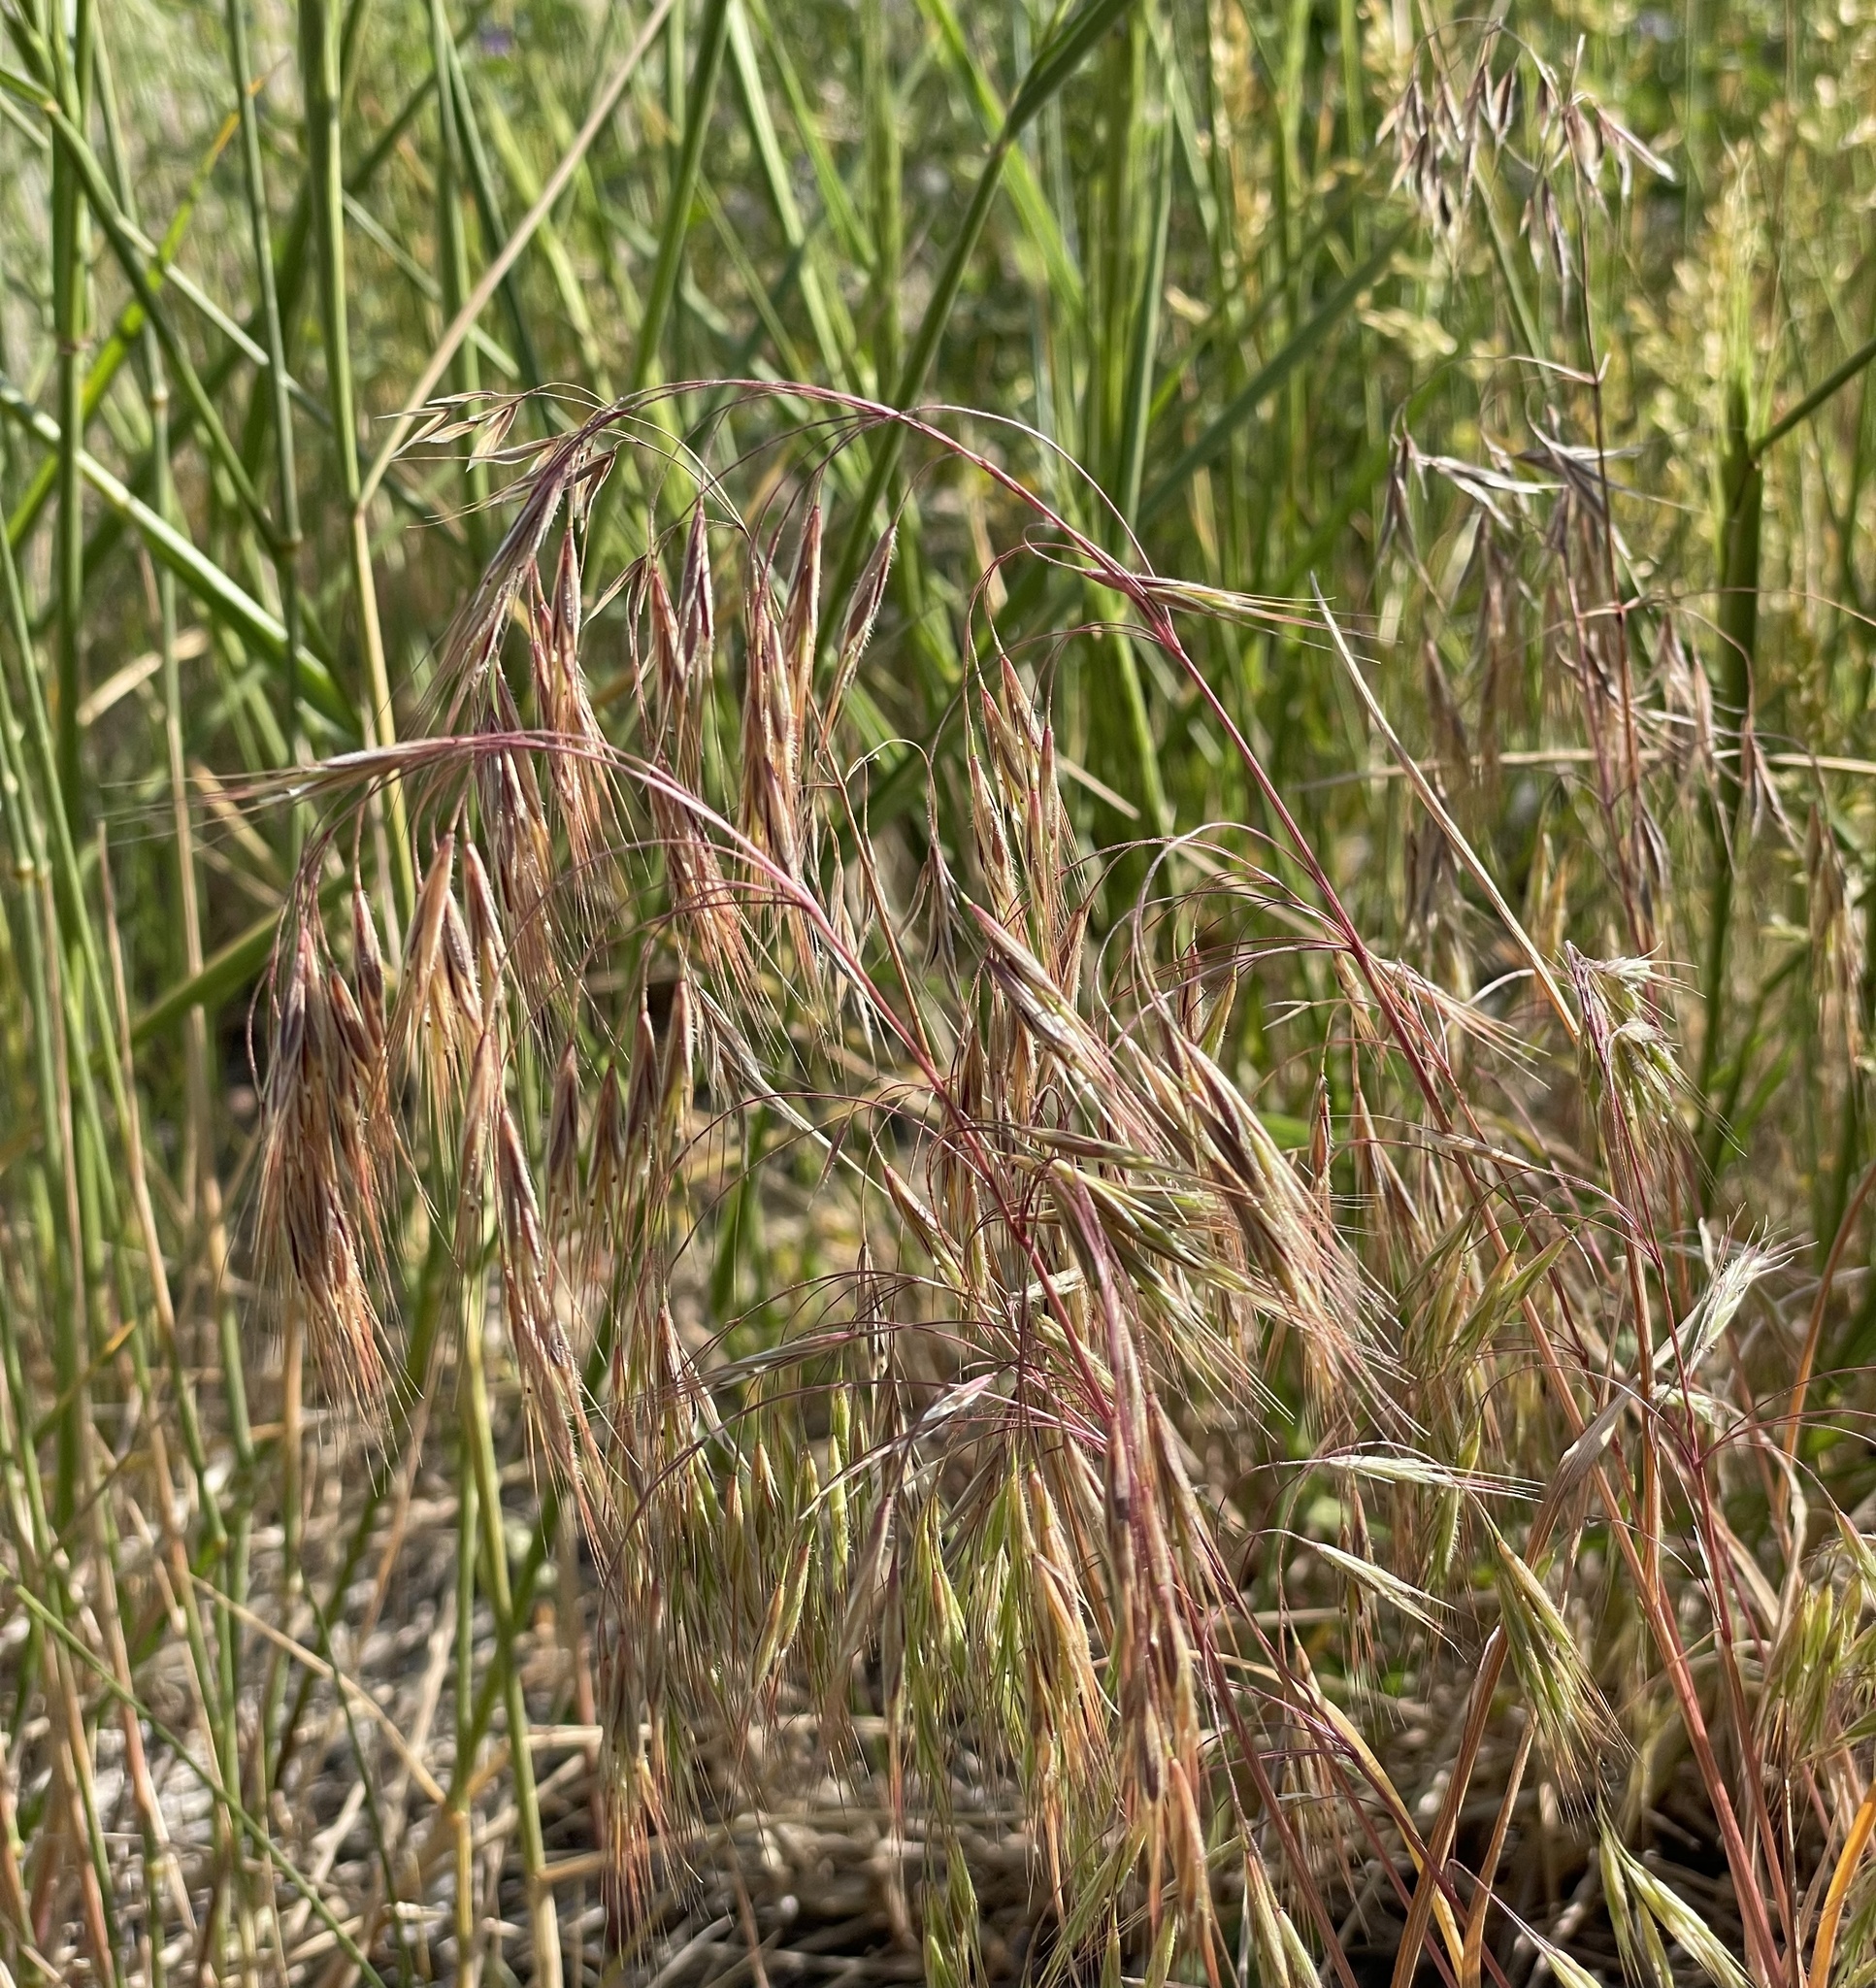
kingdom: Plantae
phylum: Tracheophyta
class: Liliopsida
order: Poales
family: Poaceae
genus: Bromus
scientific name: Bromus tectorum
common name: Cheatgrass
